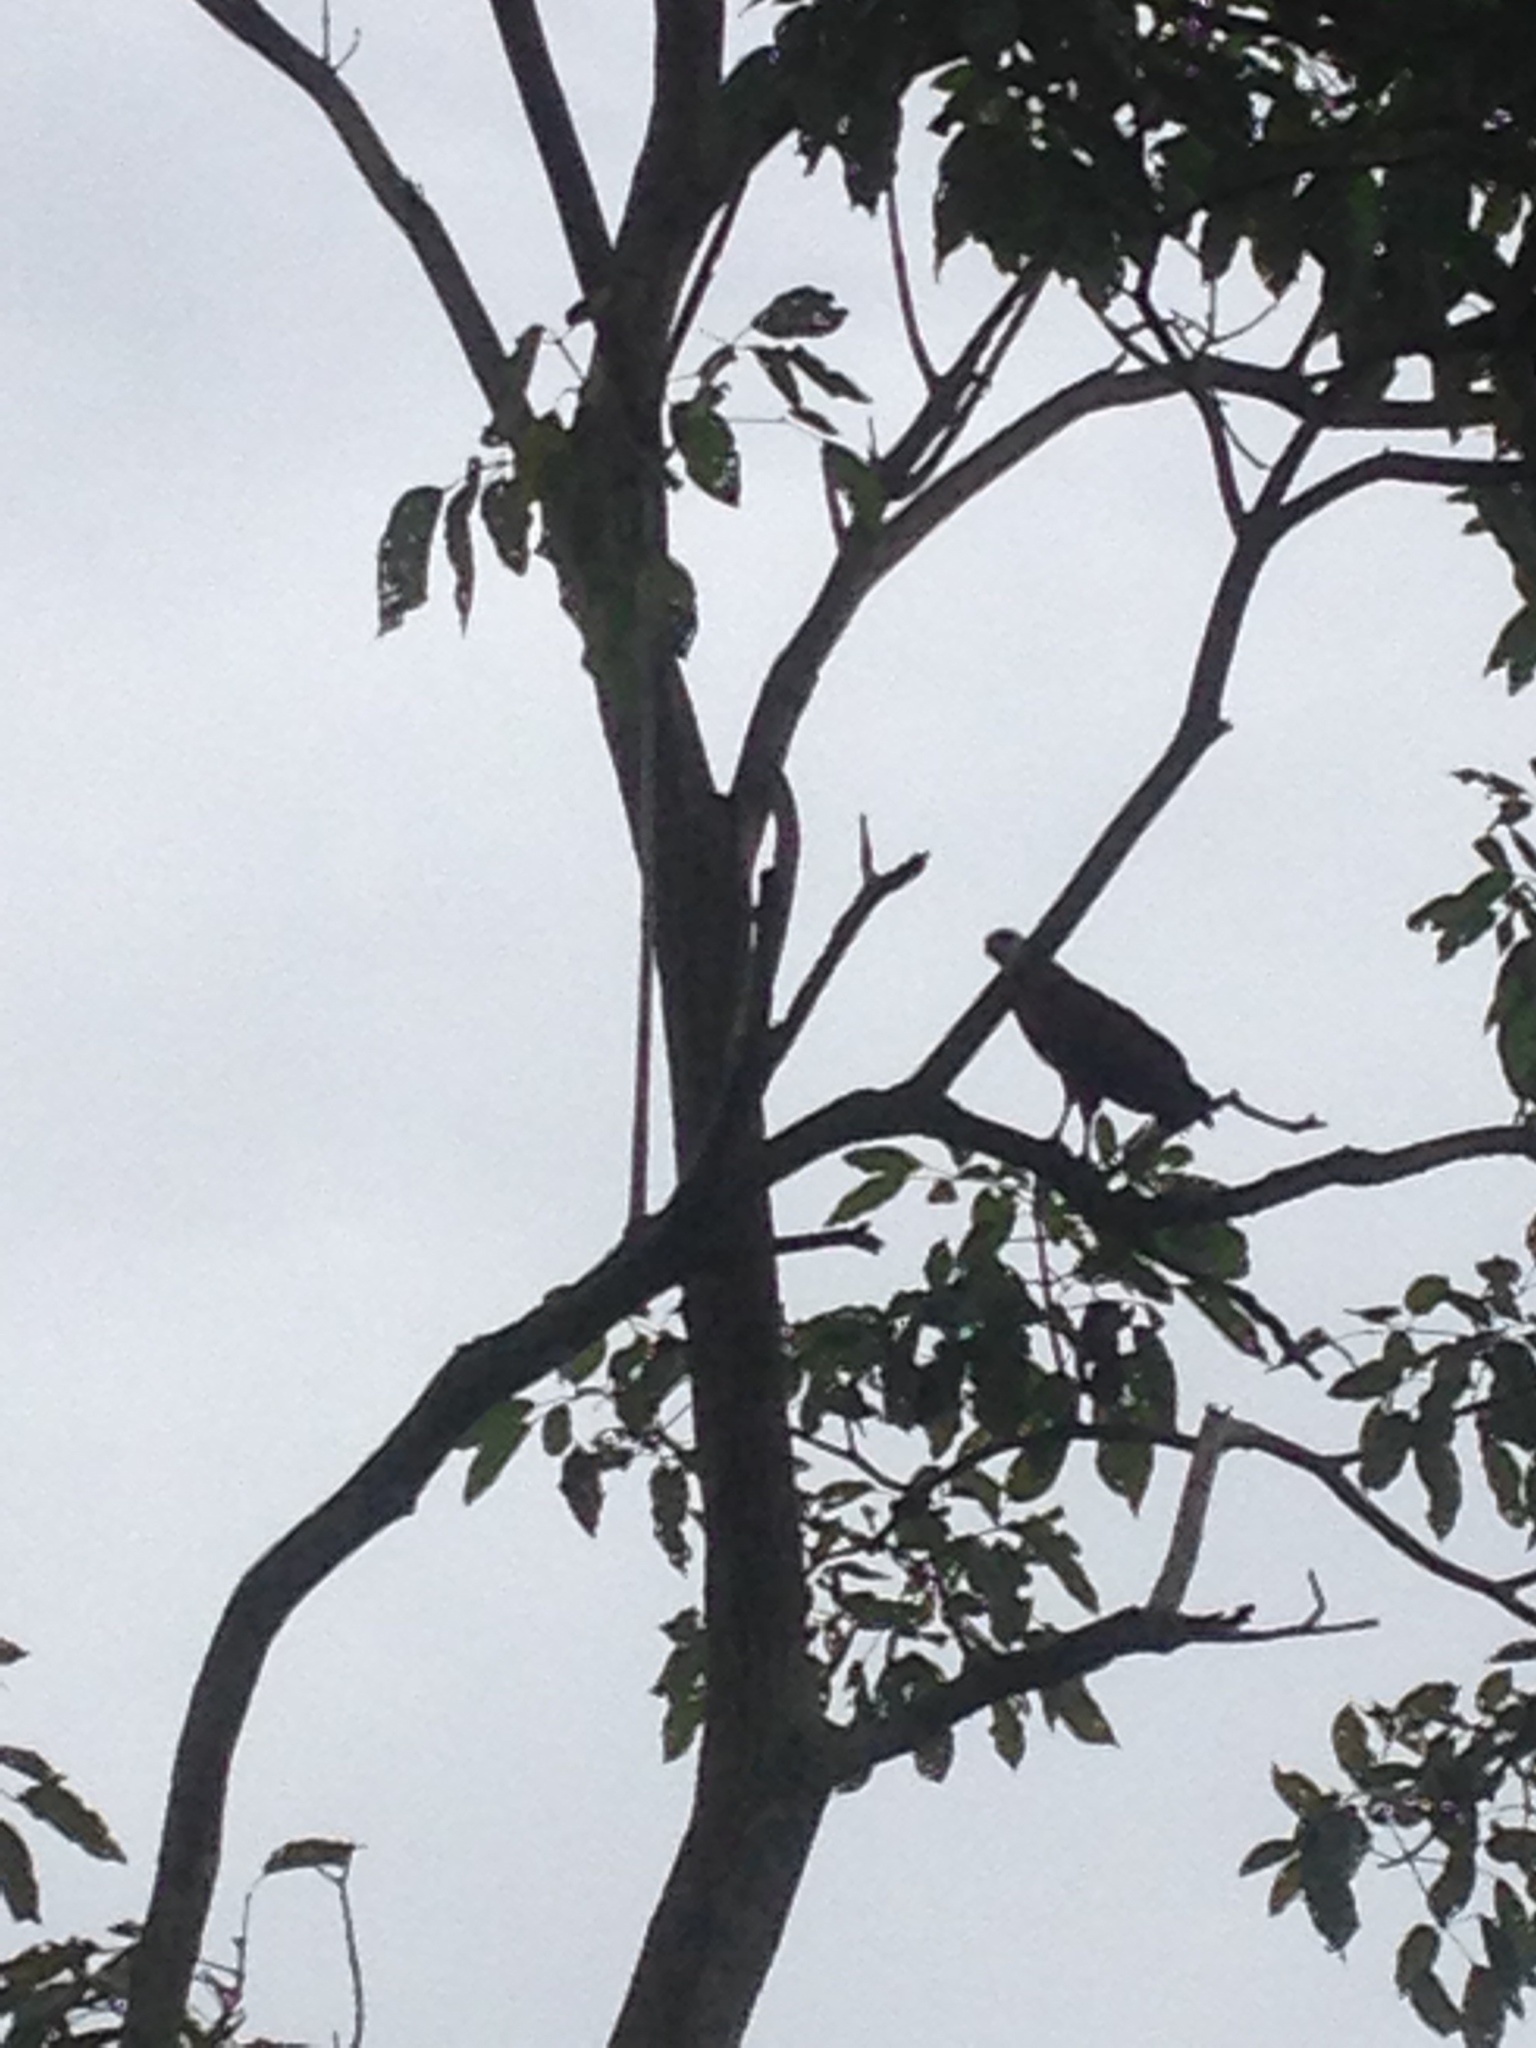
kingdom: Animalia
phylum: Chordata
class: Aves
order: Accipitriformes
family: Accipitridae
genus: Busarellus
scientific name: Busarellus nigricollis
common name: Black-collared hawk
